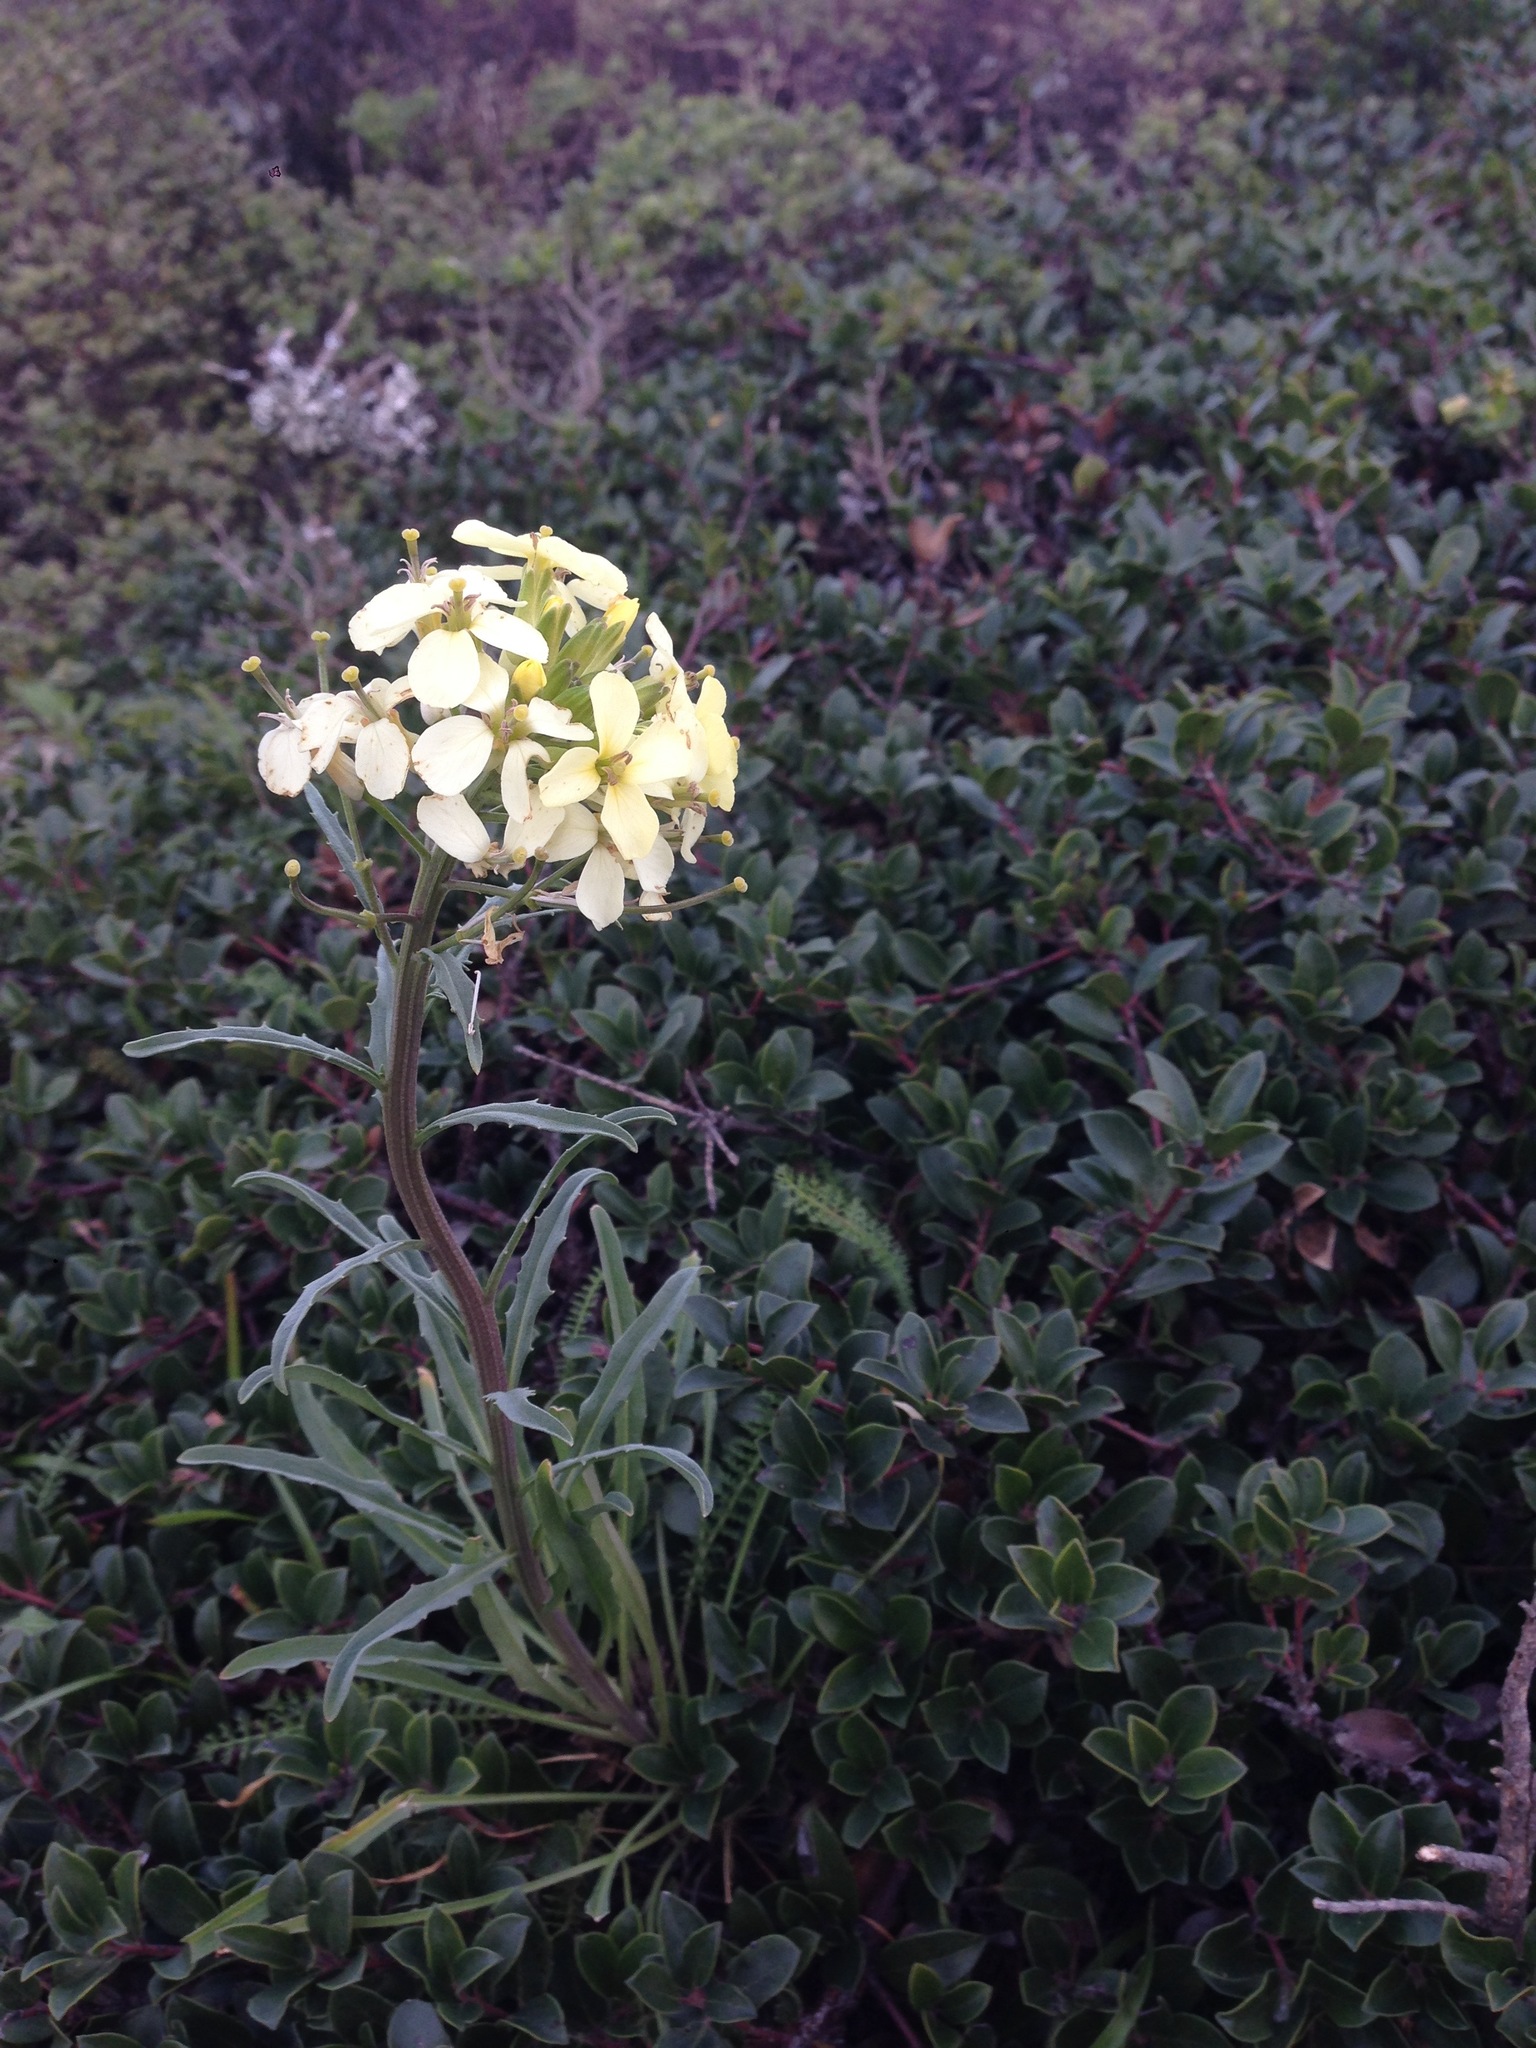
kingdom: Plantae
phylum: Tracheophyta
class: Magnoliopsida
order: Brassicales
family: Brassicaceae
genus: Erysimum
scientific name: Erysimum franciscanum
